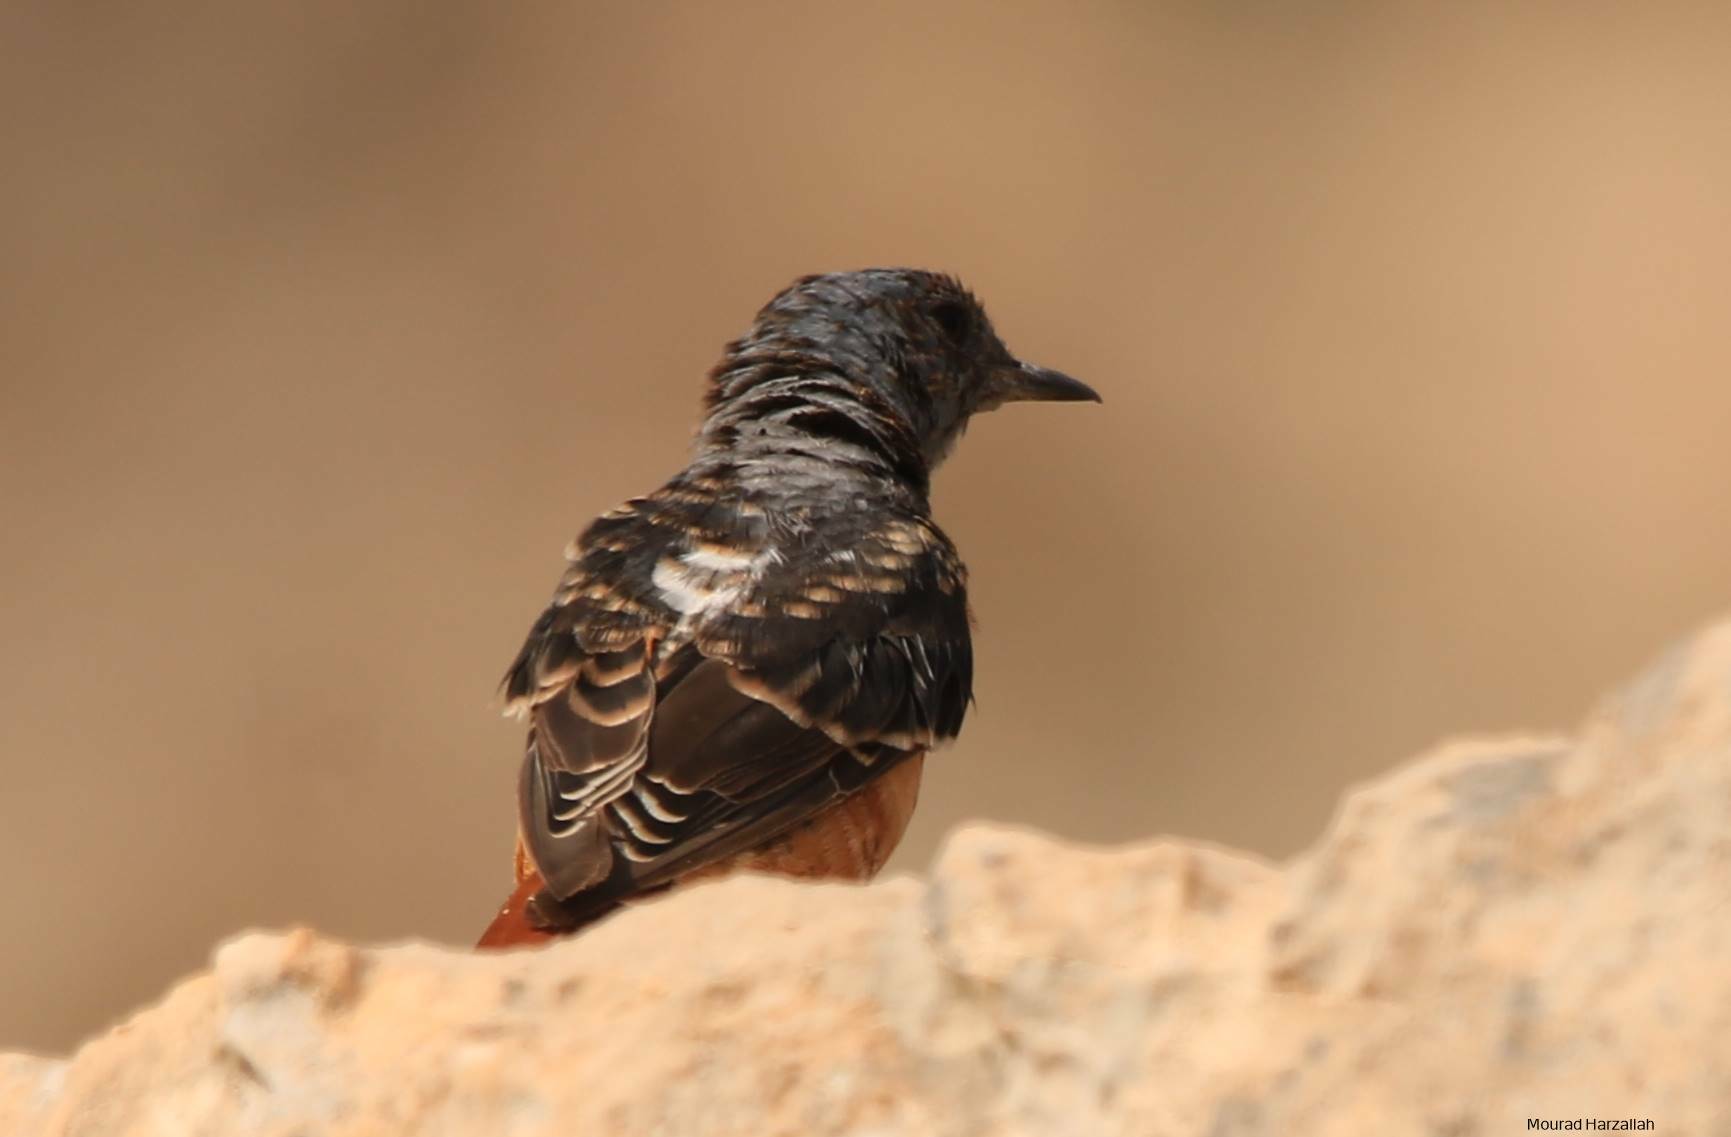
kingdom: Animalia
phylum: Chordata
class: Aves
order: Passeriformes
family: Muscicapidae
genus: Monticola
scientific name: Monticola saxatilis
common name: Rufous-tailed rock thrush
